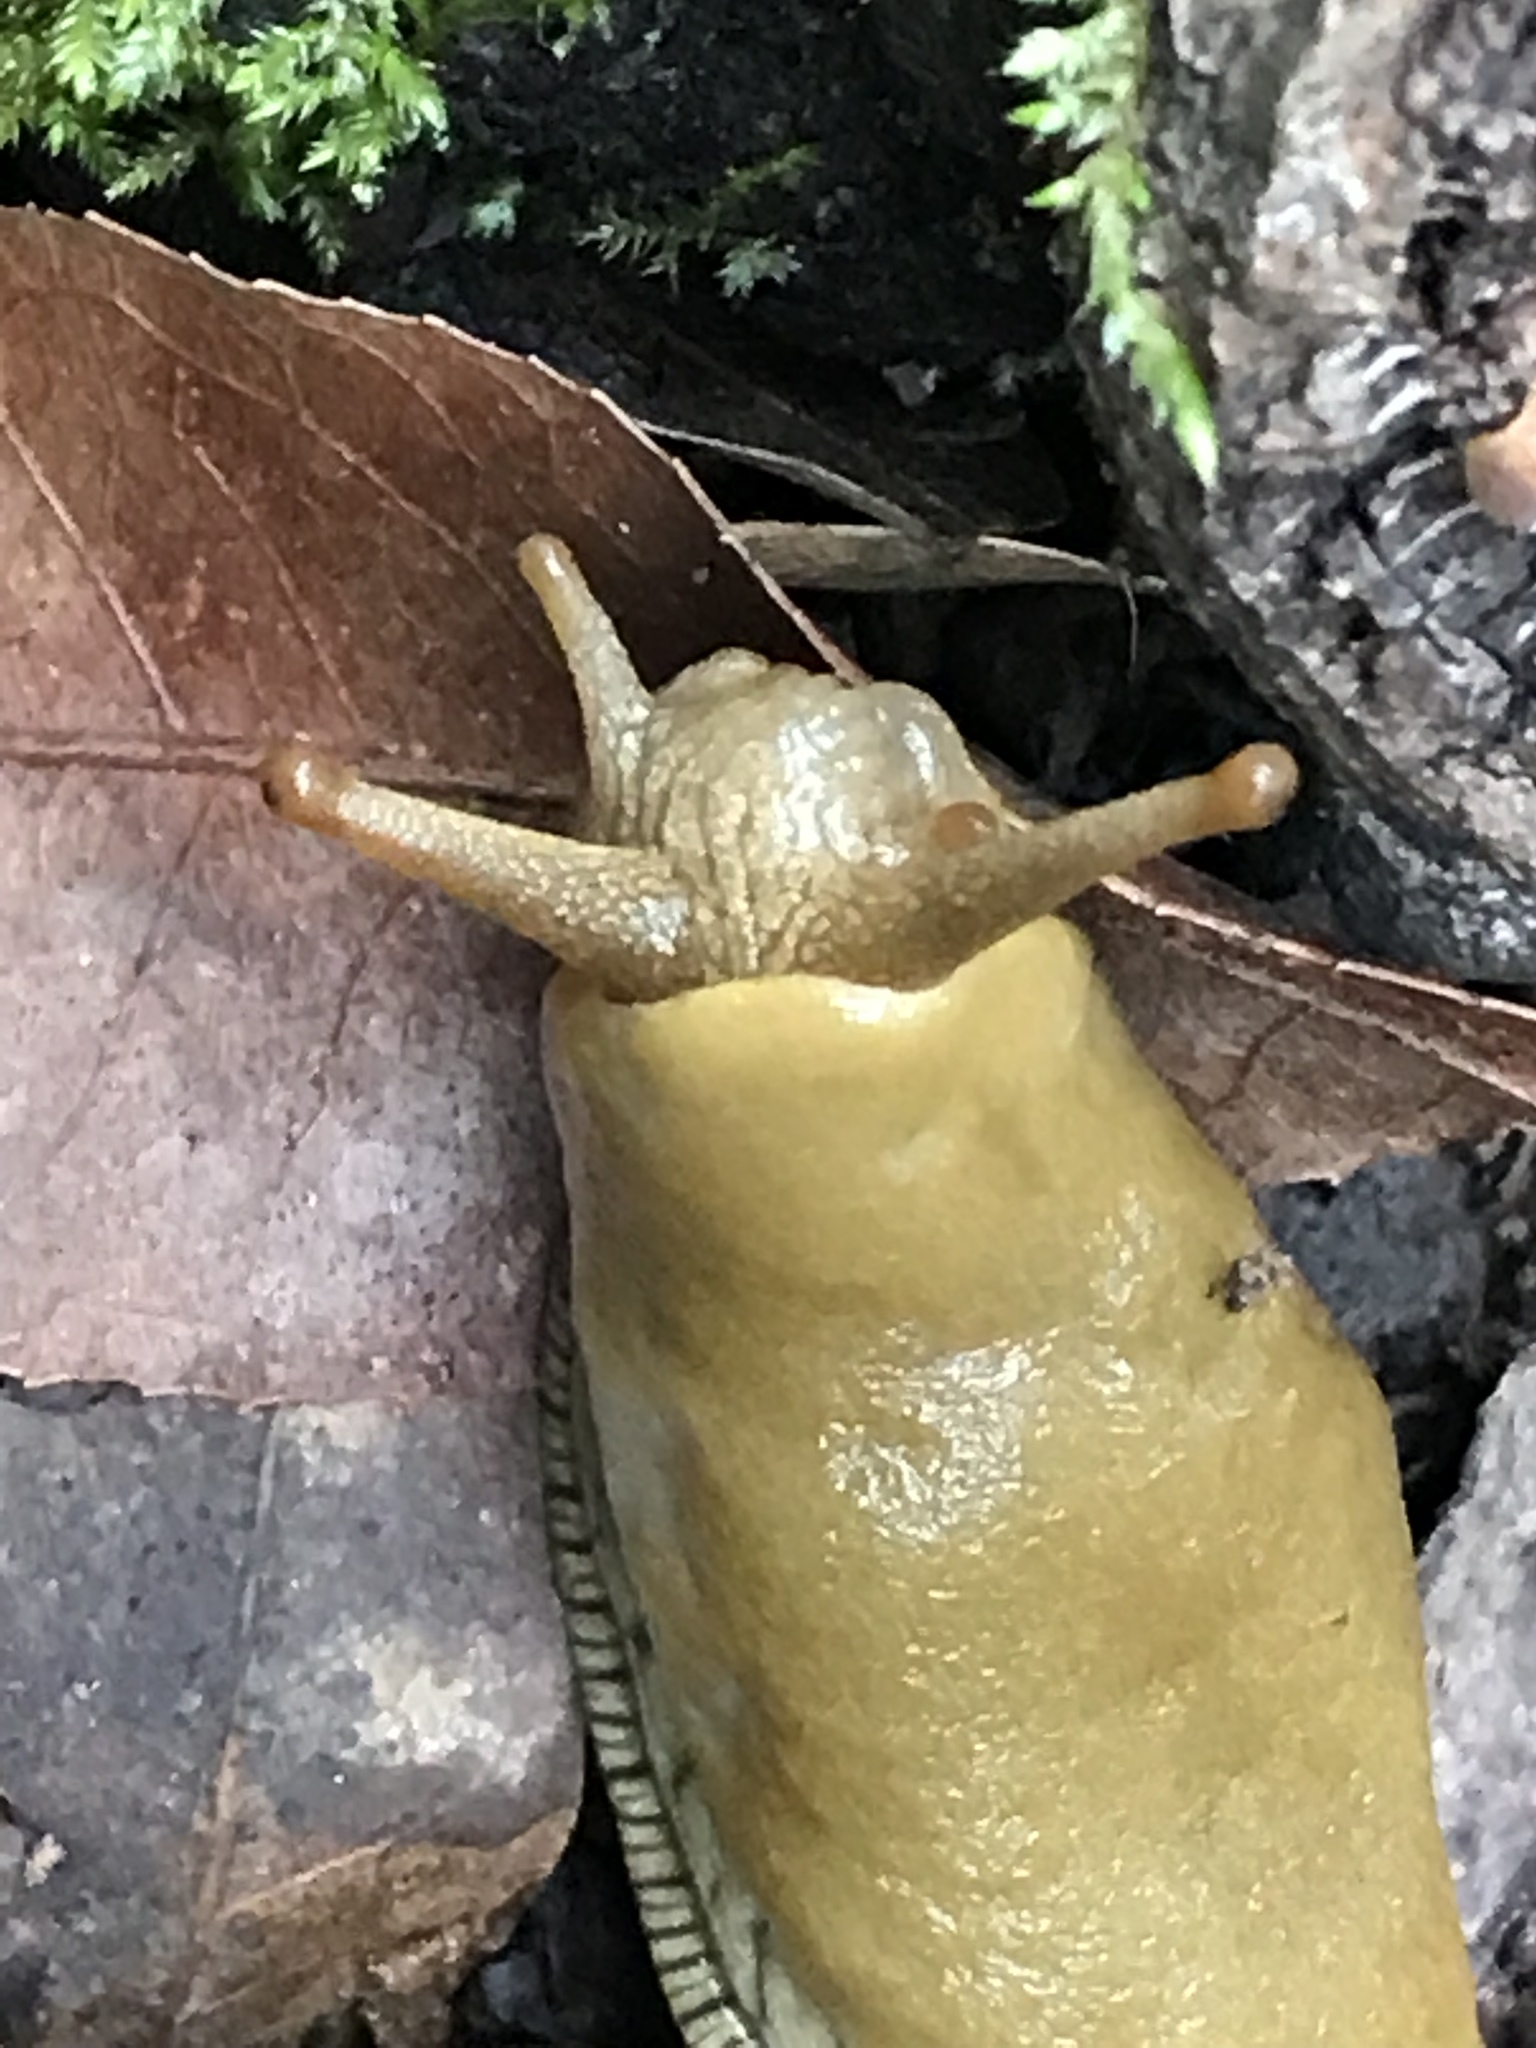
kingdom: Animalia
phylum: Mollusca
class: Gastropoda
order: Stylommatophora
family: Ariolimacidae
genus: Ariolimax
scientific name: Ariolimax buttoni
